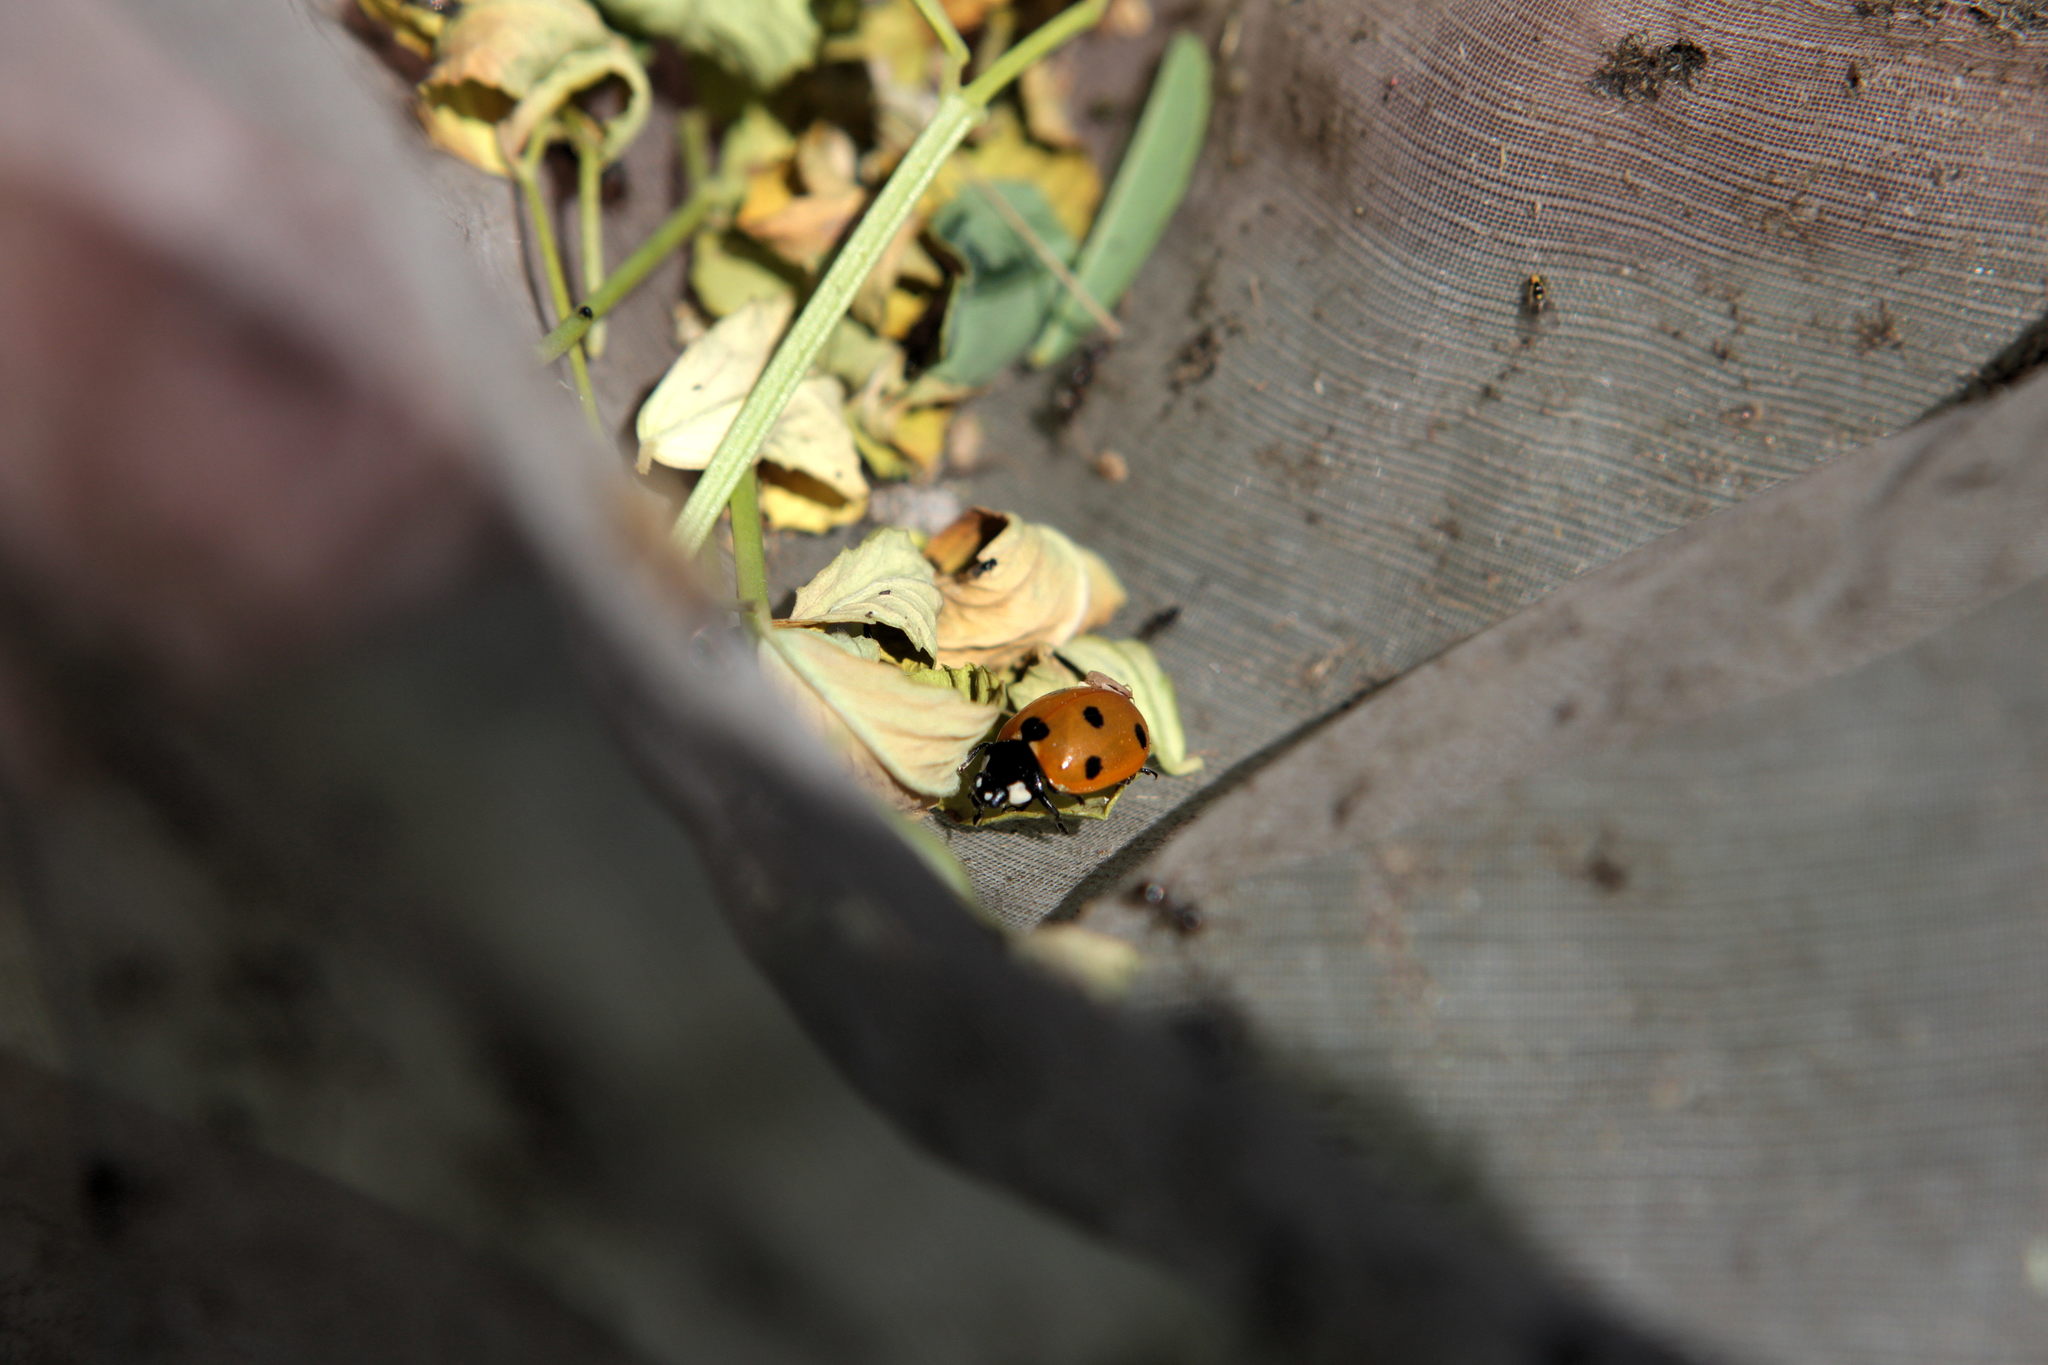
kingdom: Animalia
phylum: Arthropoda
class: Insecta
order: Coleoptera
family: Coccinellidae
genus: Coccinella
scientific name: Coccinella septempunctata
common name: Sevenspotted lady beetle
